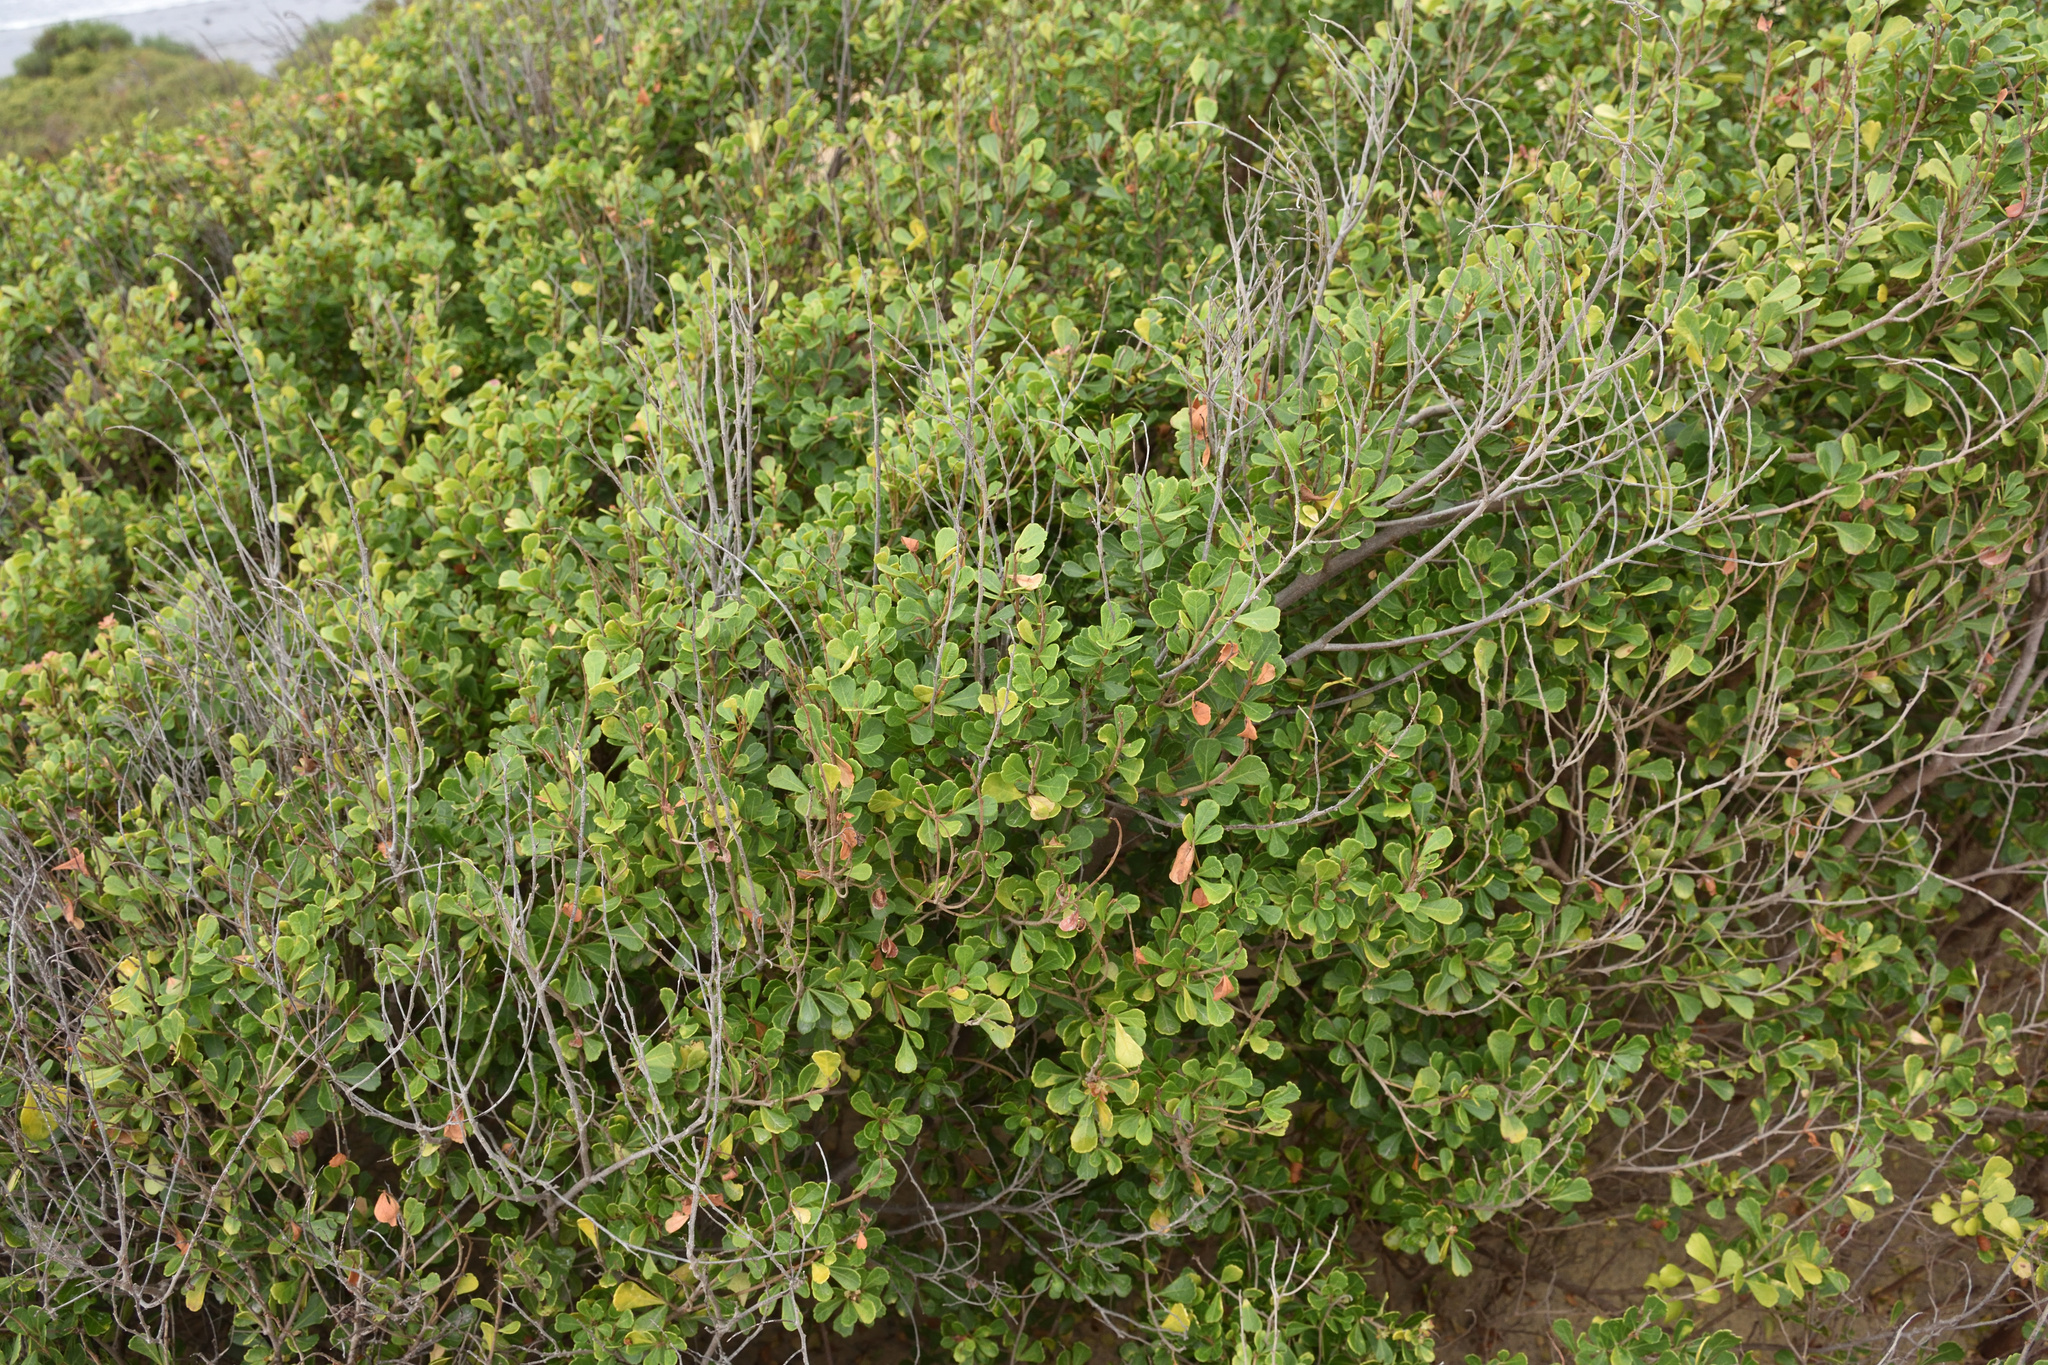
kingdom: Plantae
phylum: Tracheophyta
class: Magnoliopsida
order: Sapindales
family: Anacardiaceae
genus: Searsia
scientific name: Searsia crenata
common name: Crowberry
